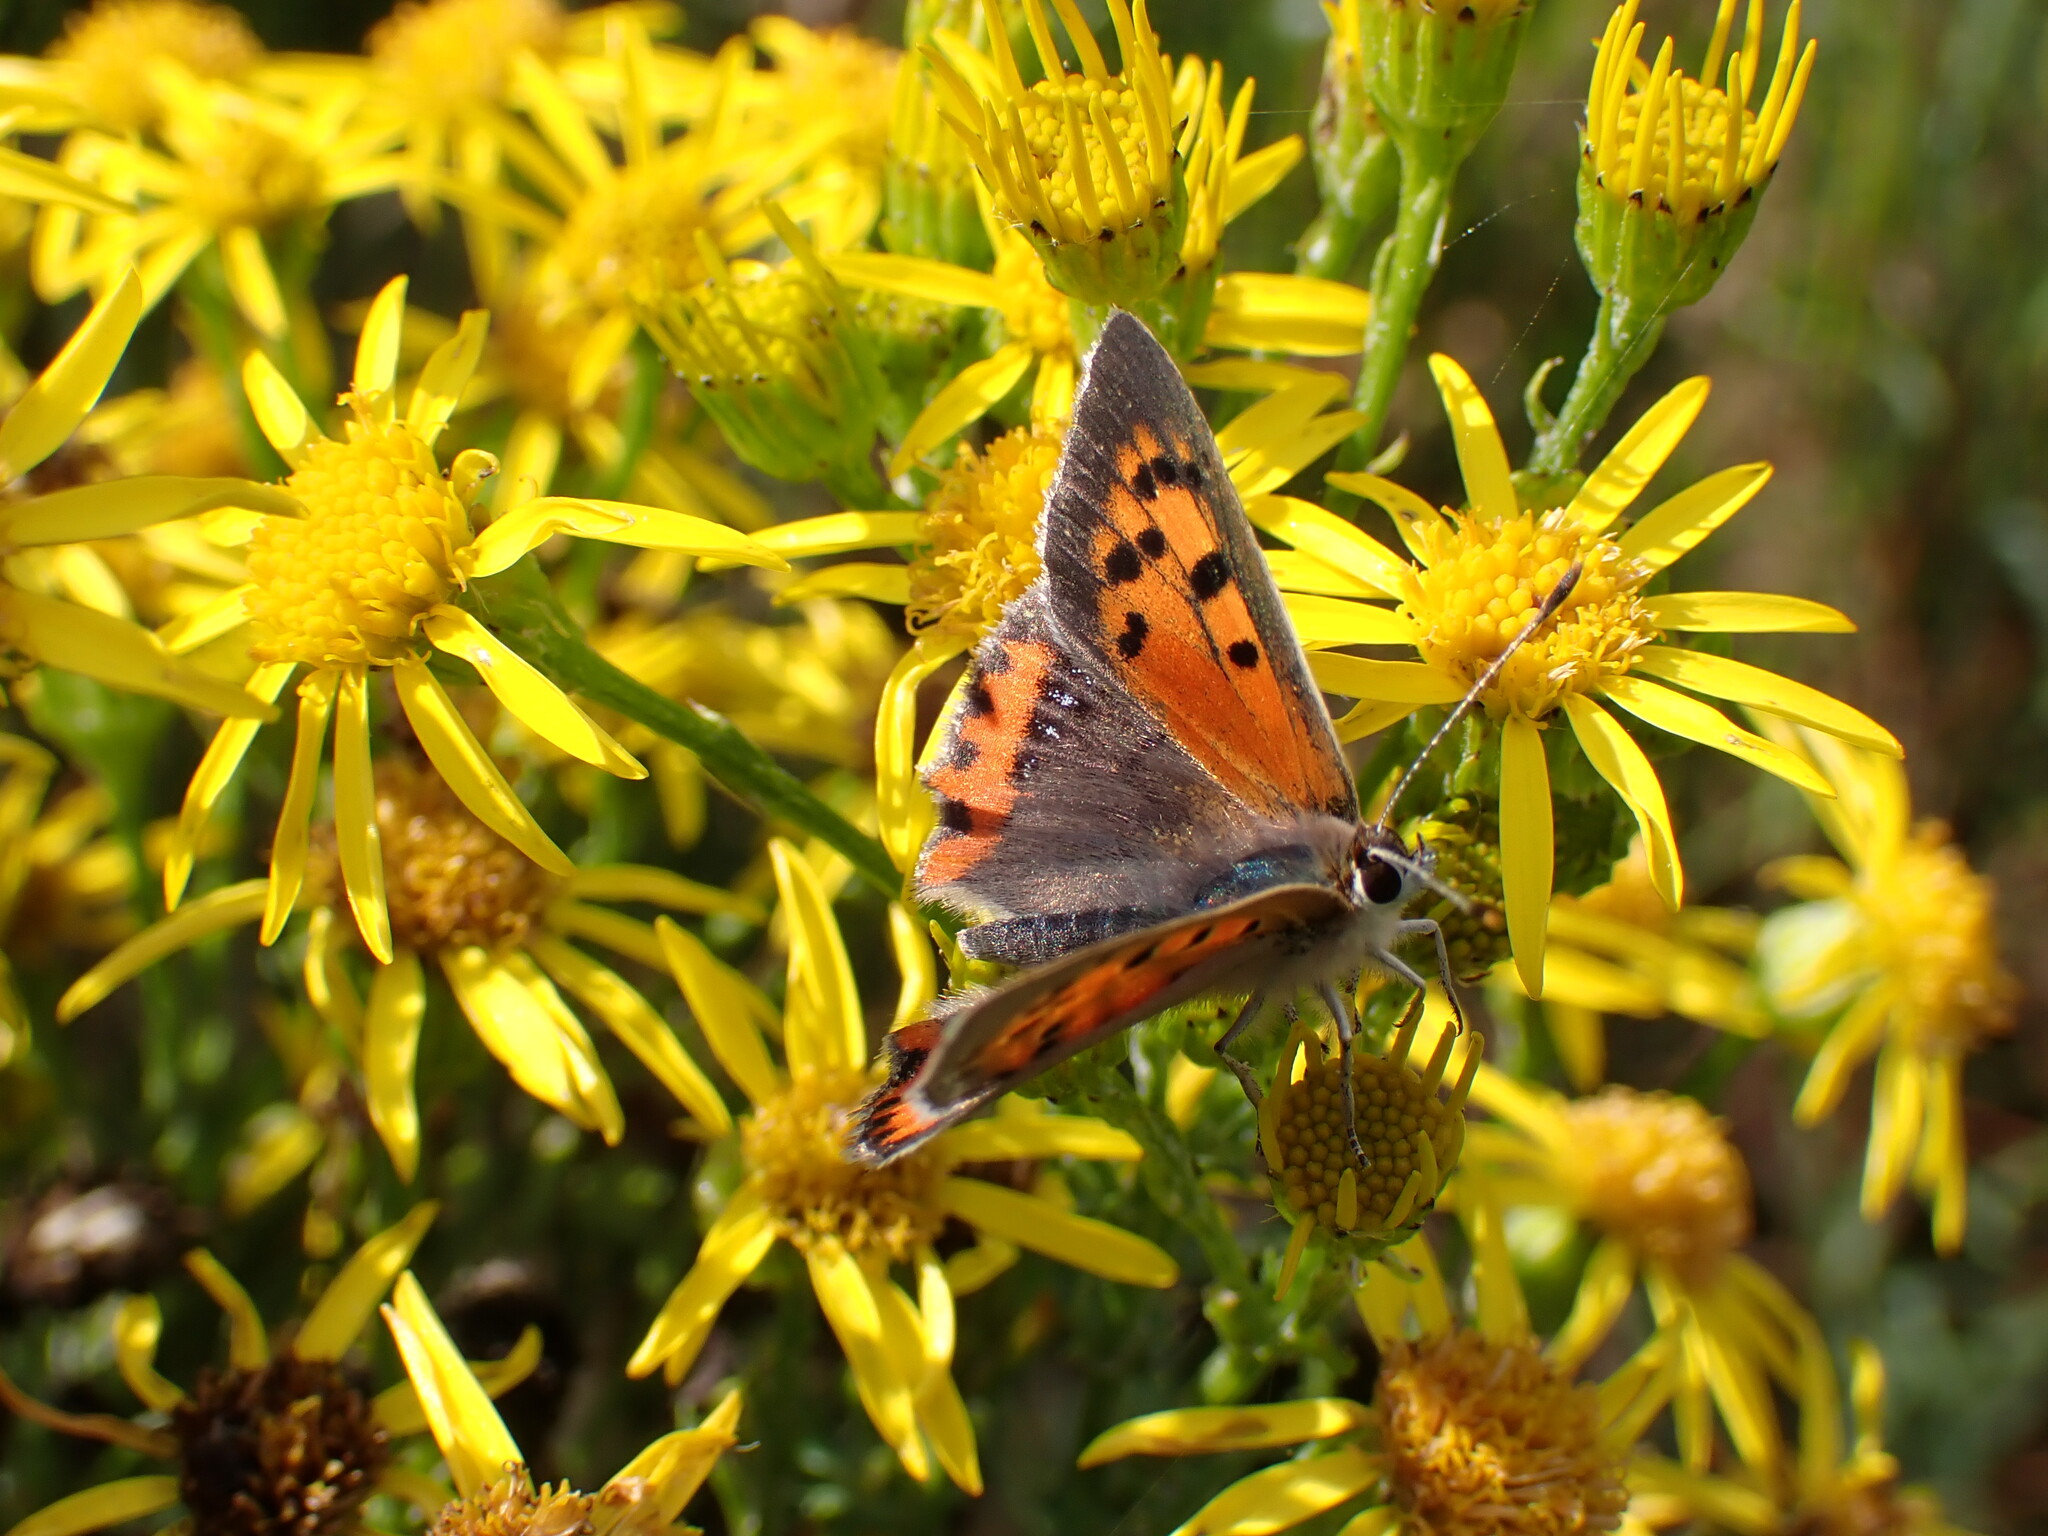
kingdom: Animalia
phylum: Arthropoda
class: Insecta
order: Lepidoptera
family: Lycaenidae
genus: Lycaena
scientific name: Lycaena phlaeas
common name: Small copper
